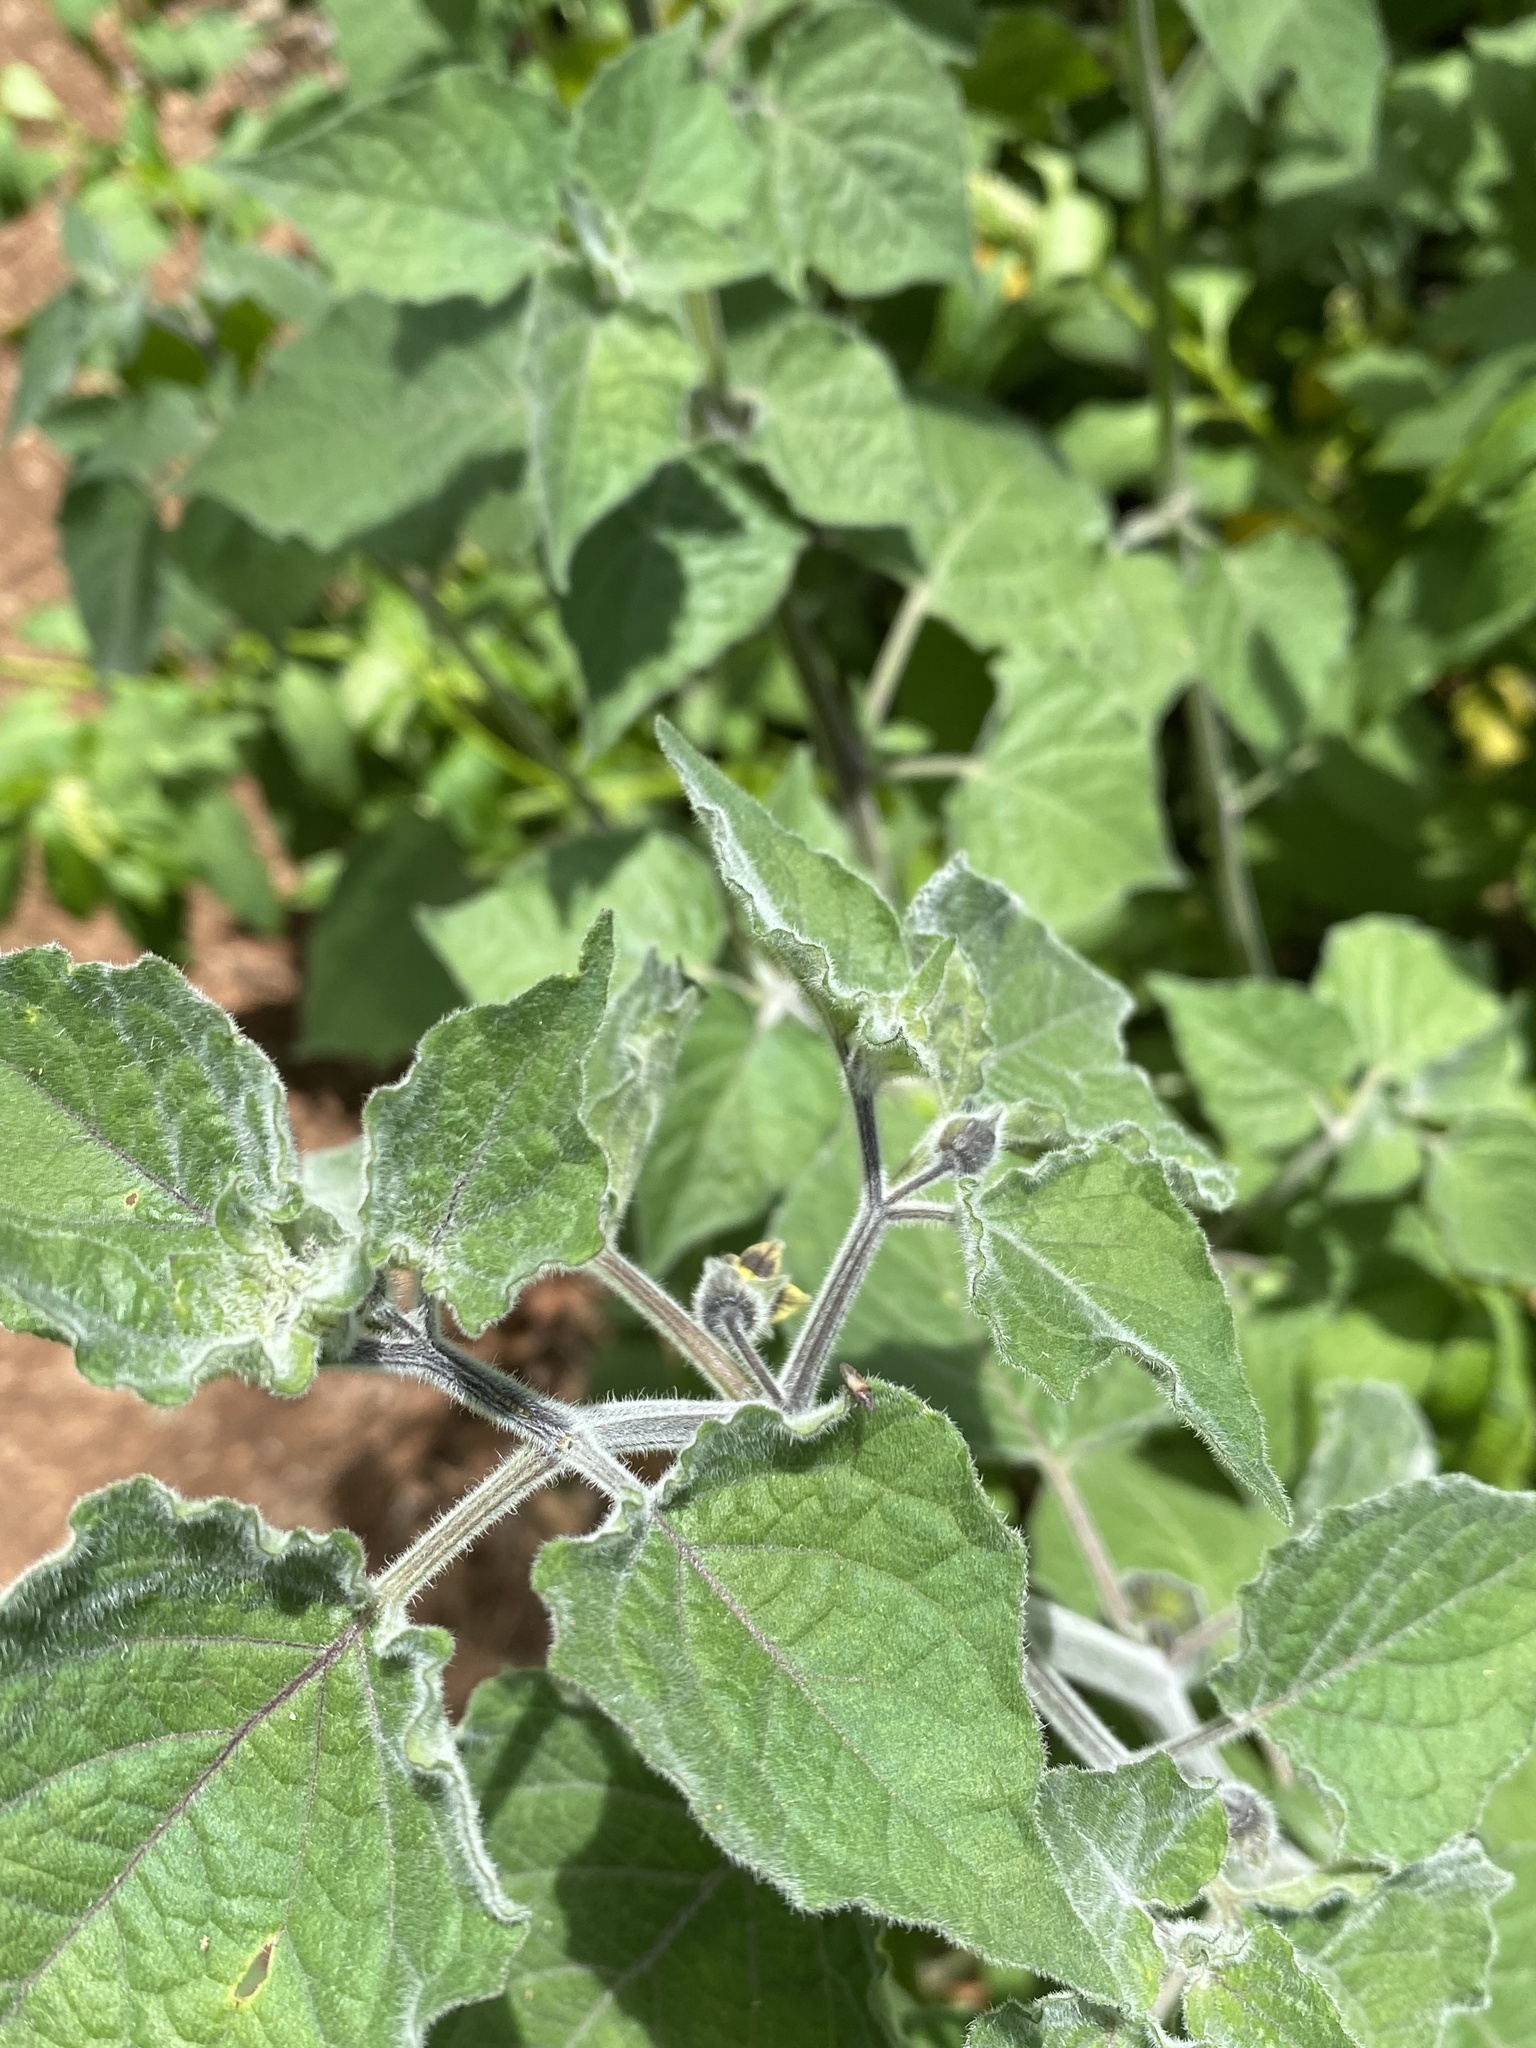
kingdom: Plantae
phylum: Tracheophyta
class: Magnoliopsida
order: Solanales
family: Solanaceae
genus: Physalis
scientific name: Physalis peruviana
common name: Cape-gooseberry
